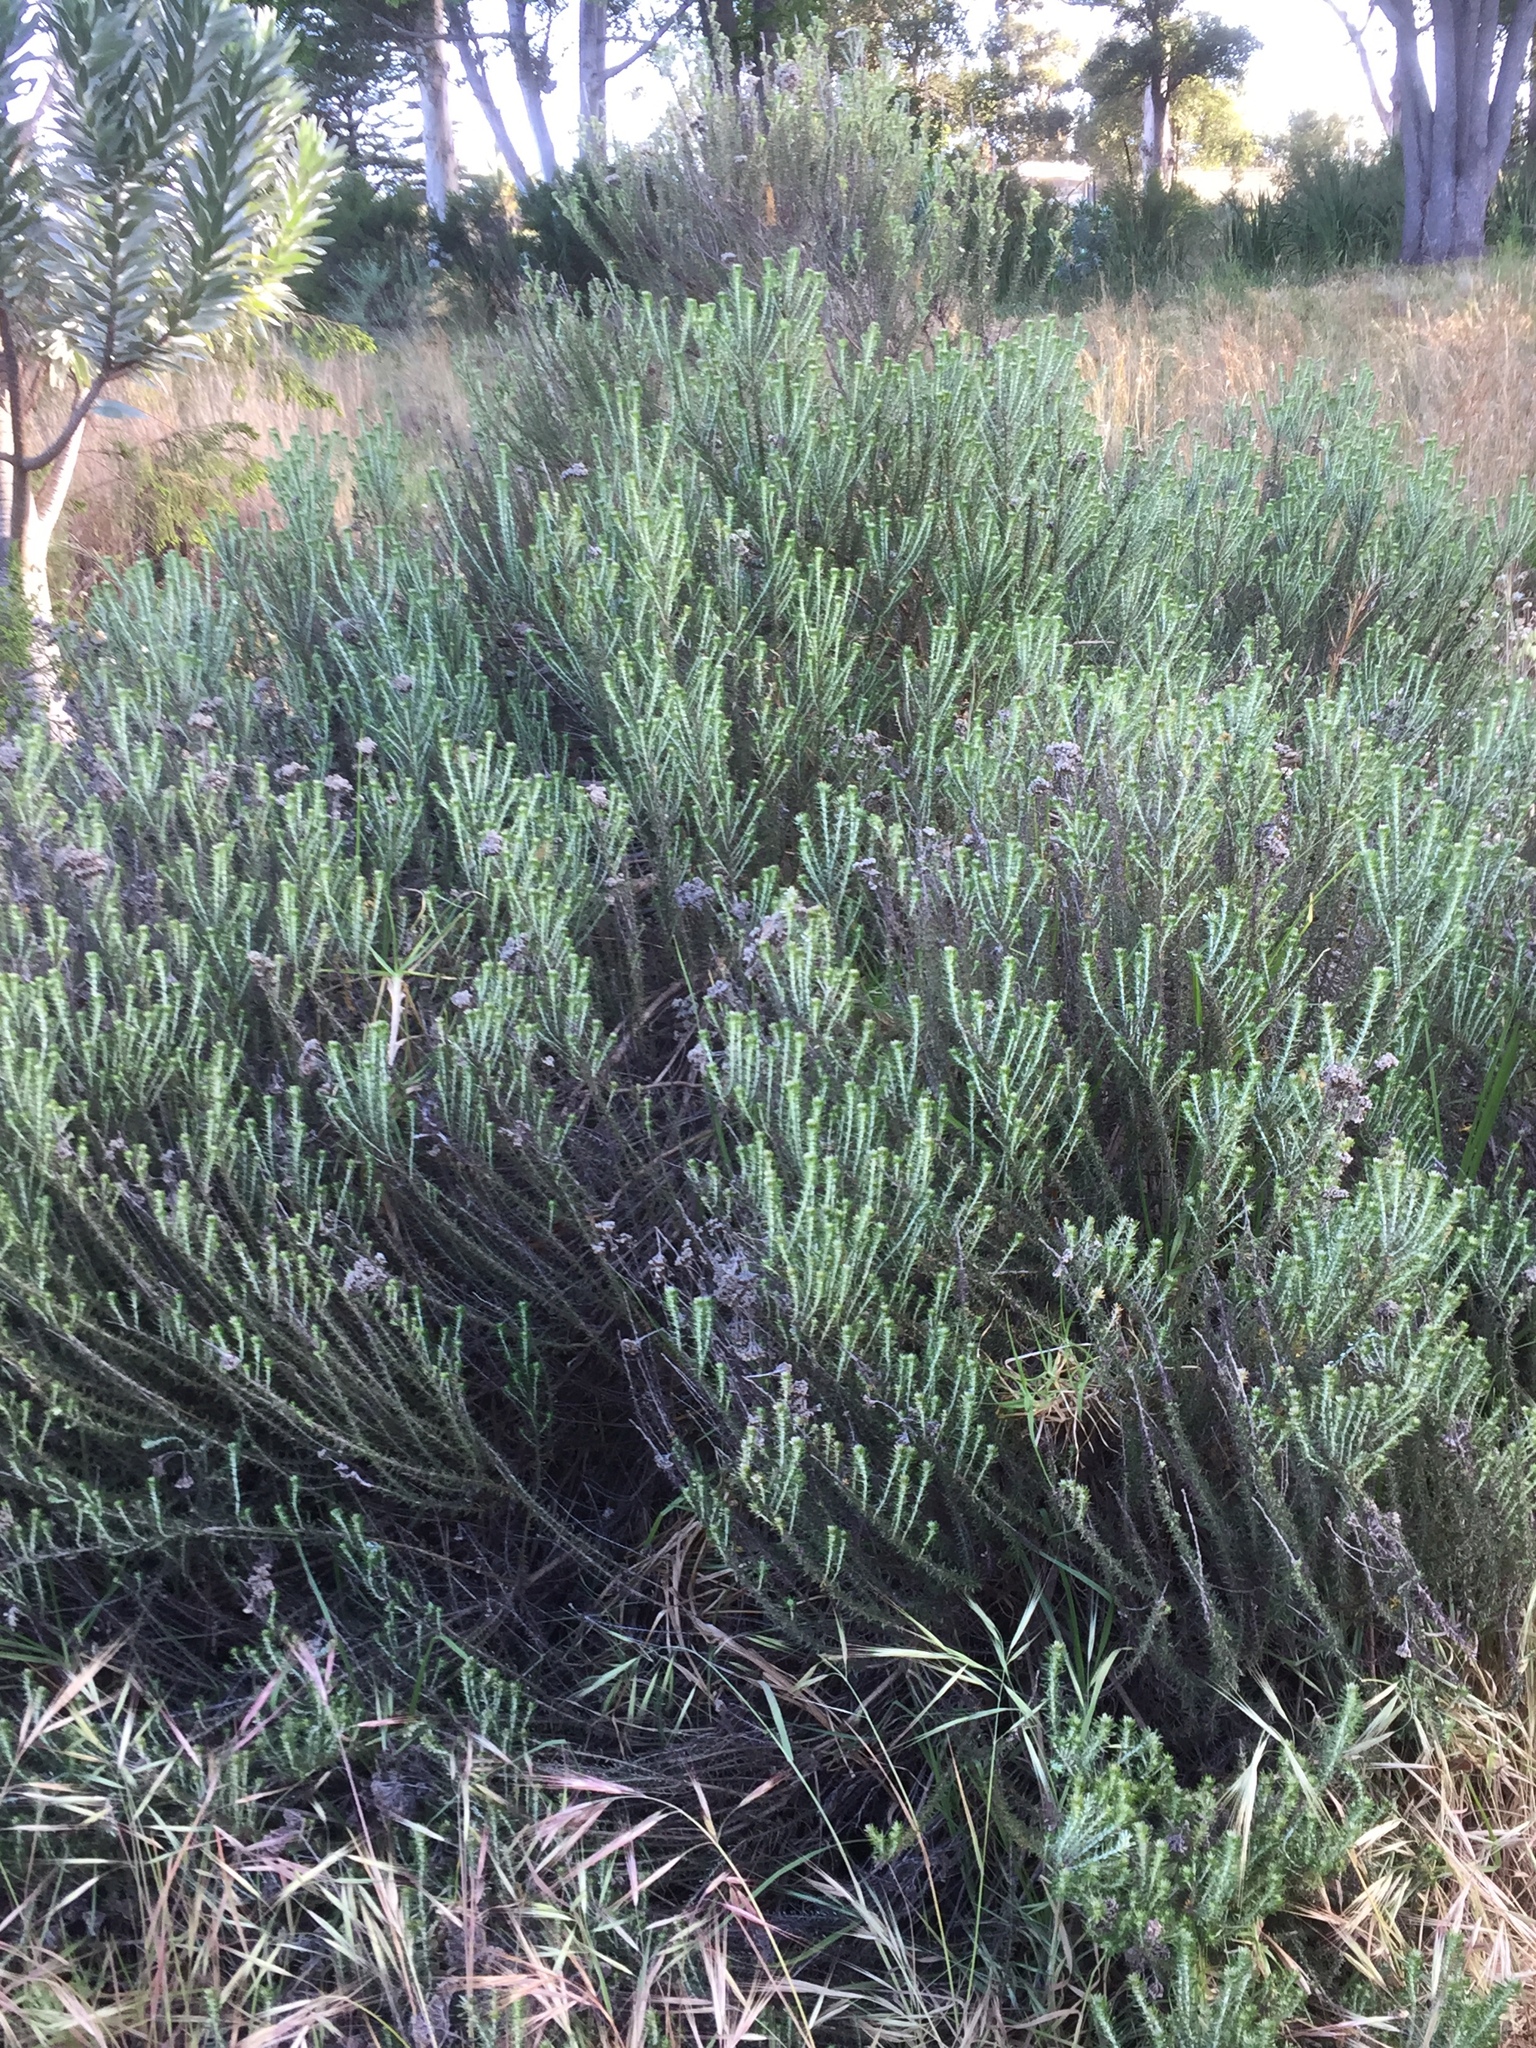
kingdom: Plantae
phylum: Tracheophyta
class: Magnoliopsida
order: Asterales
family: Asteraceae
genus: Metalasia
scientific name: Metalasia densa
